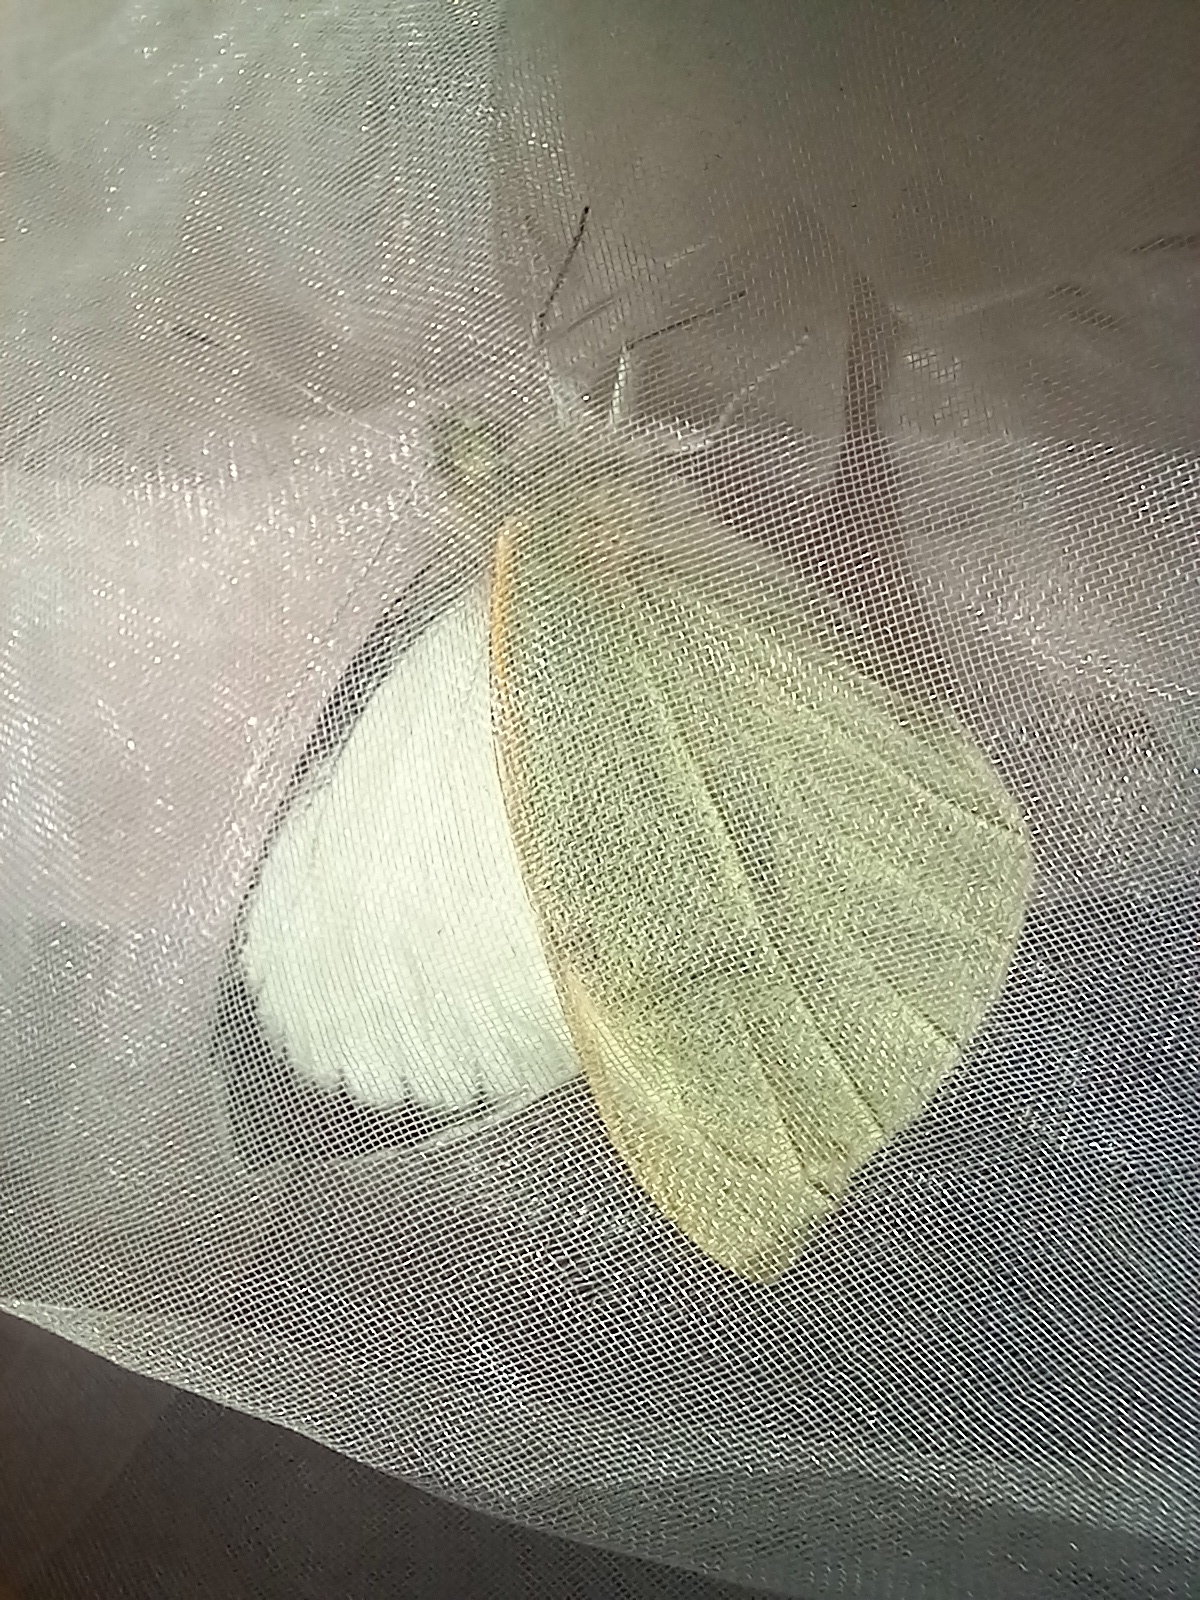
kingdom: Animalia
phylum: Arthropoda
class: Insecta
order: Lepidoptera
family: Pieridae
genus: Pieris
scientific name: Pieris brassicae
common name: Large white
